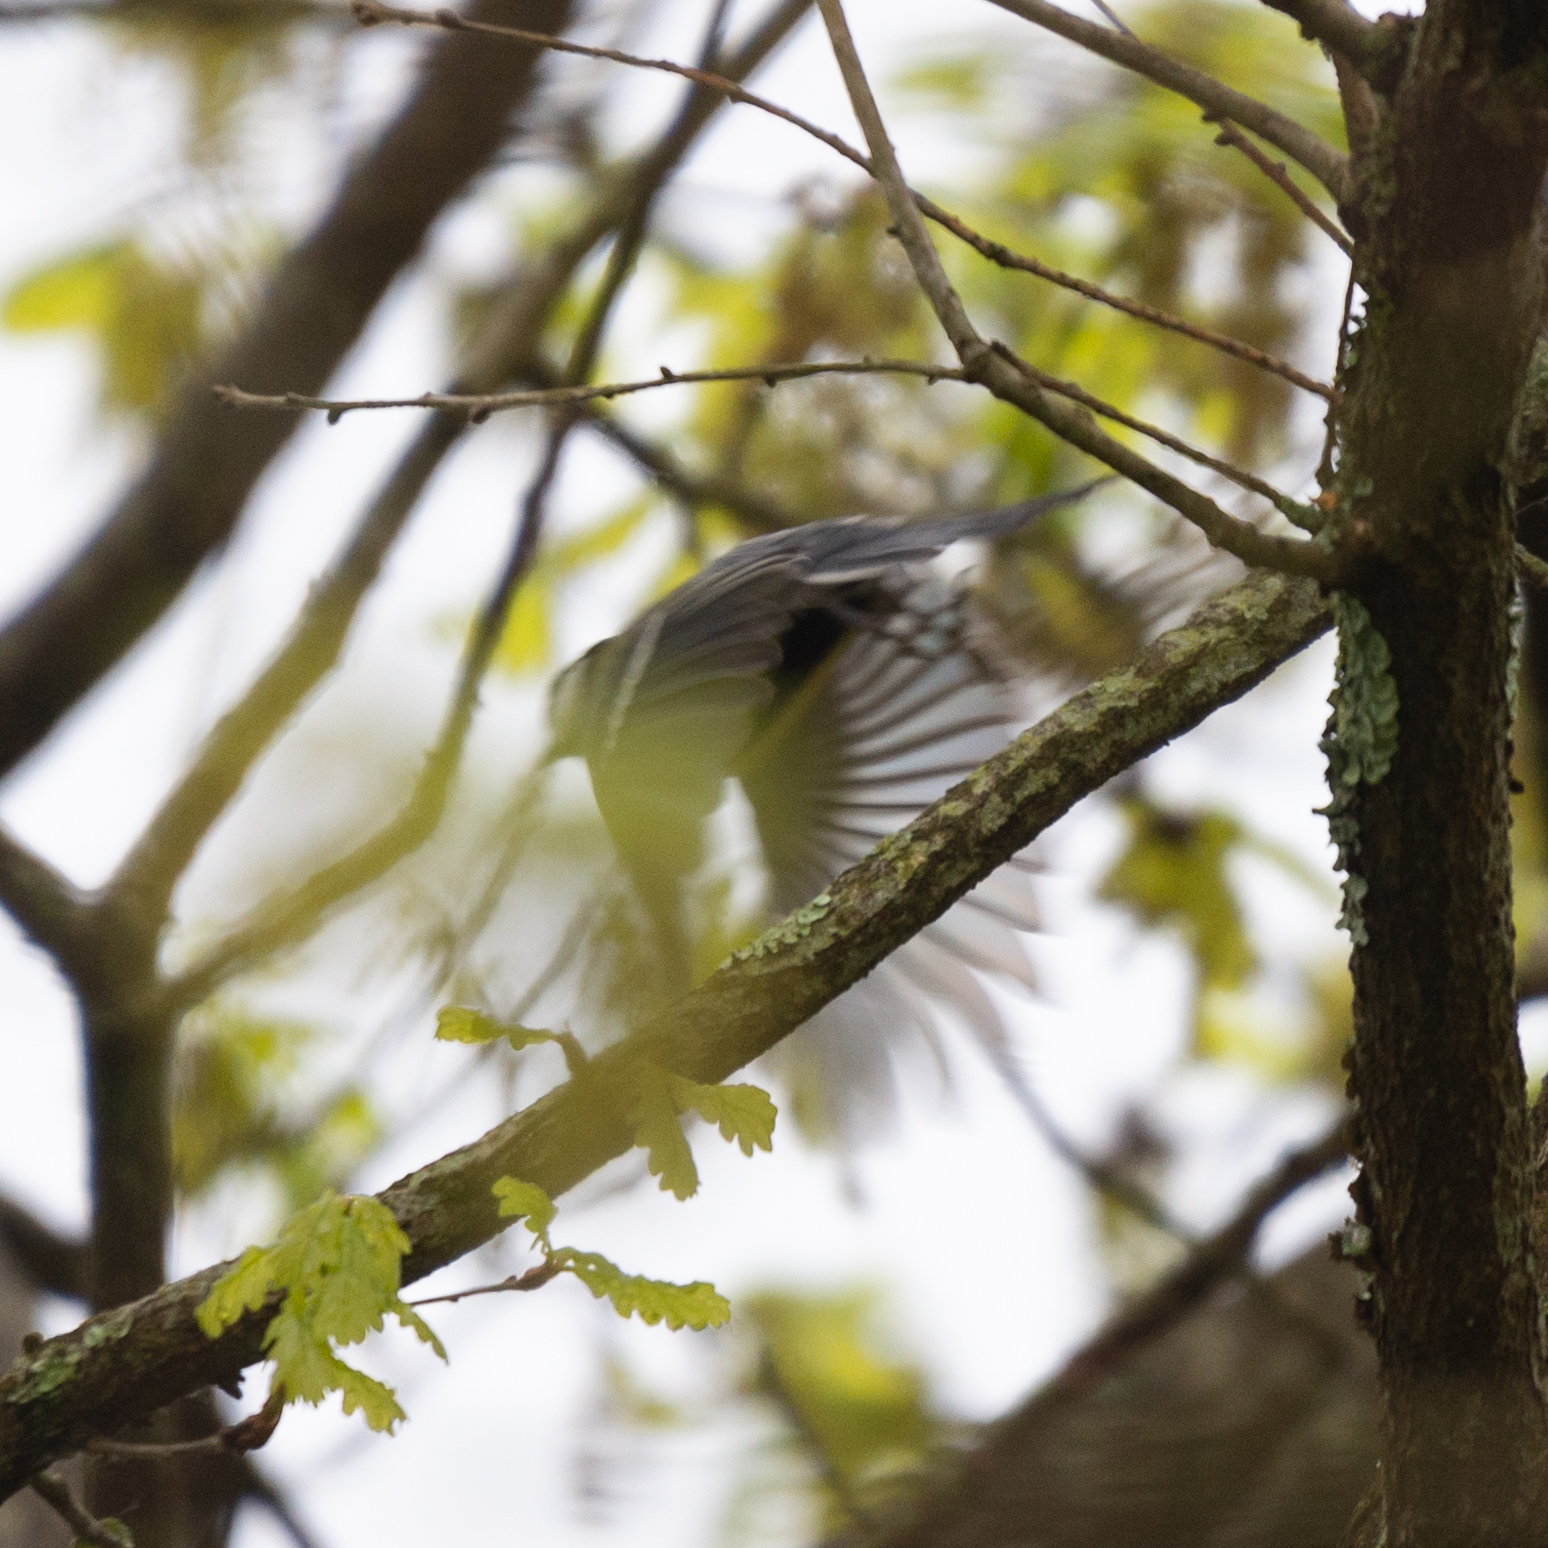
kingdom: Animalia
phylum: Chordata
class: Aves
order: Passeriformes
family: Paridae
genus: Parus
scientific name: Parus major
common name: Great tit
